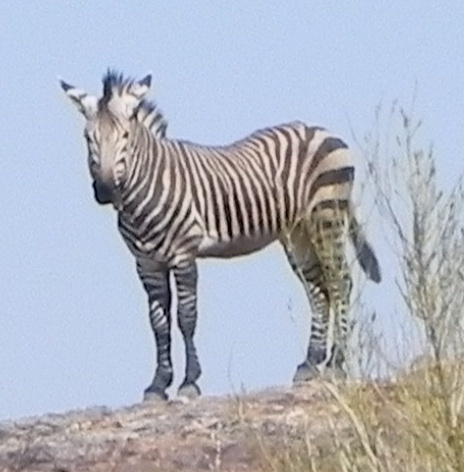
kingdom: Animalia
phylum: Chordata
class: Mammalia
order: Perissodactyla
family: Equidae
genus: Equus
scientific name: Equus hartmannae
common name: Hartmann's mountain zebra
